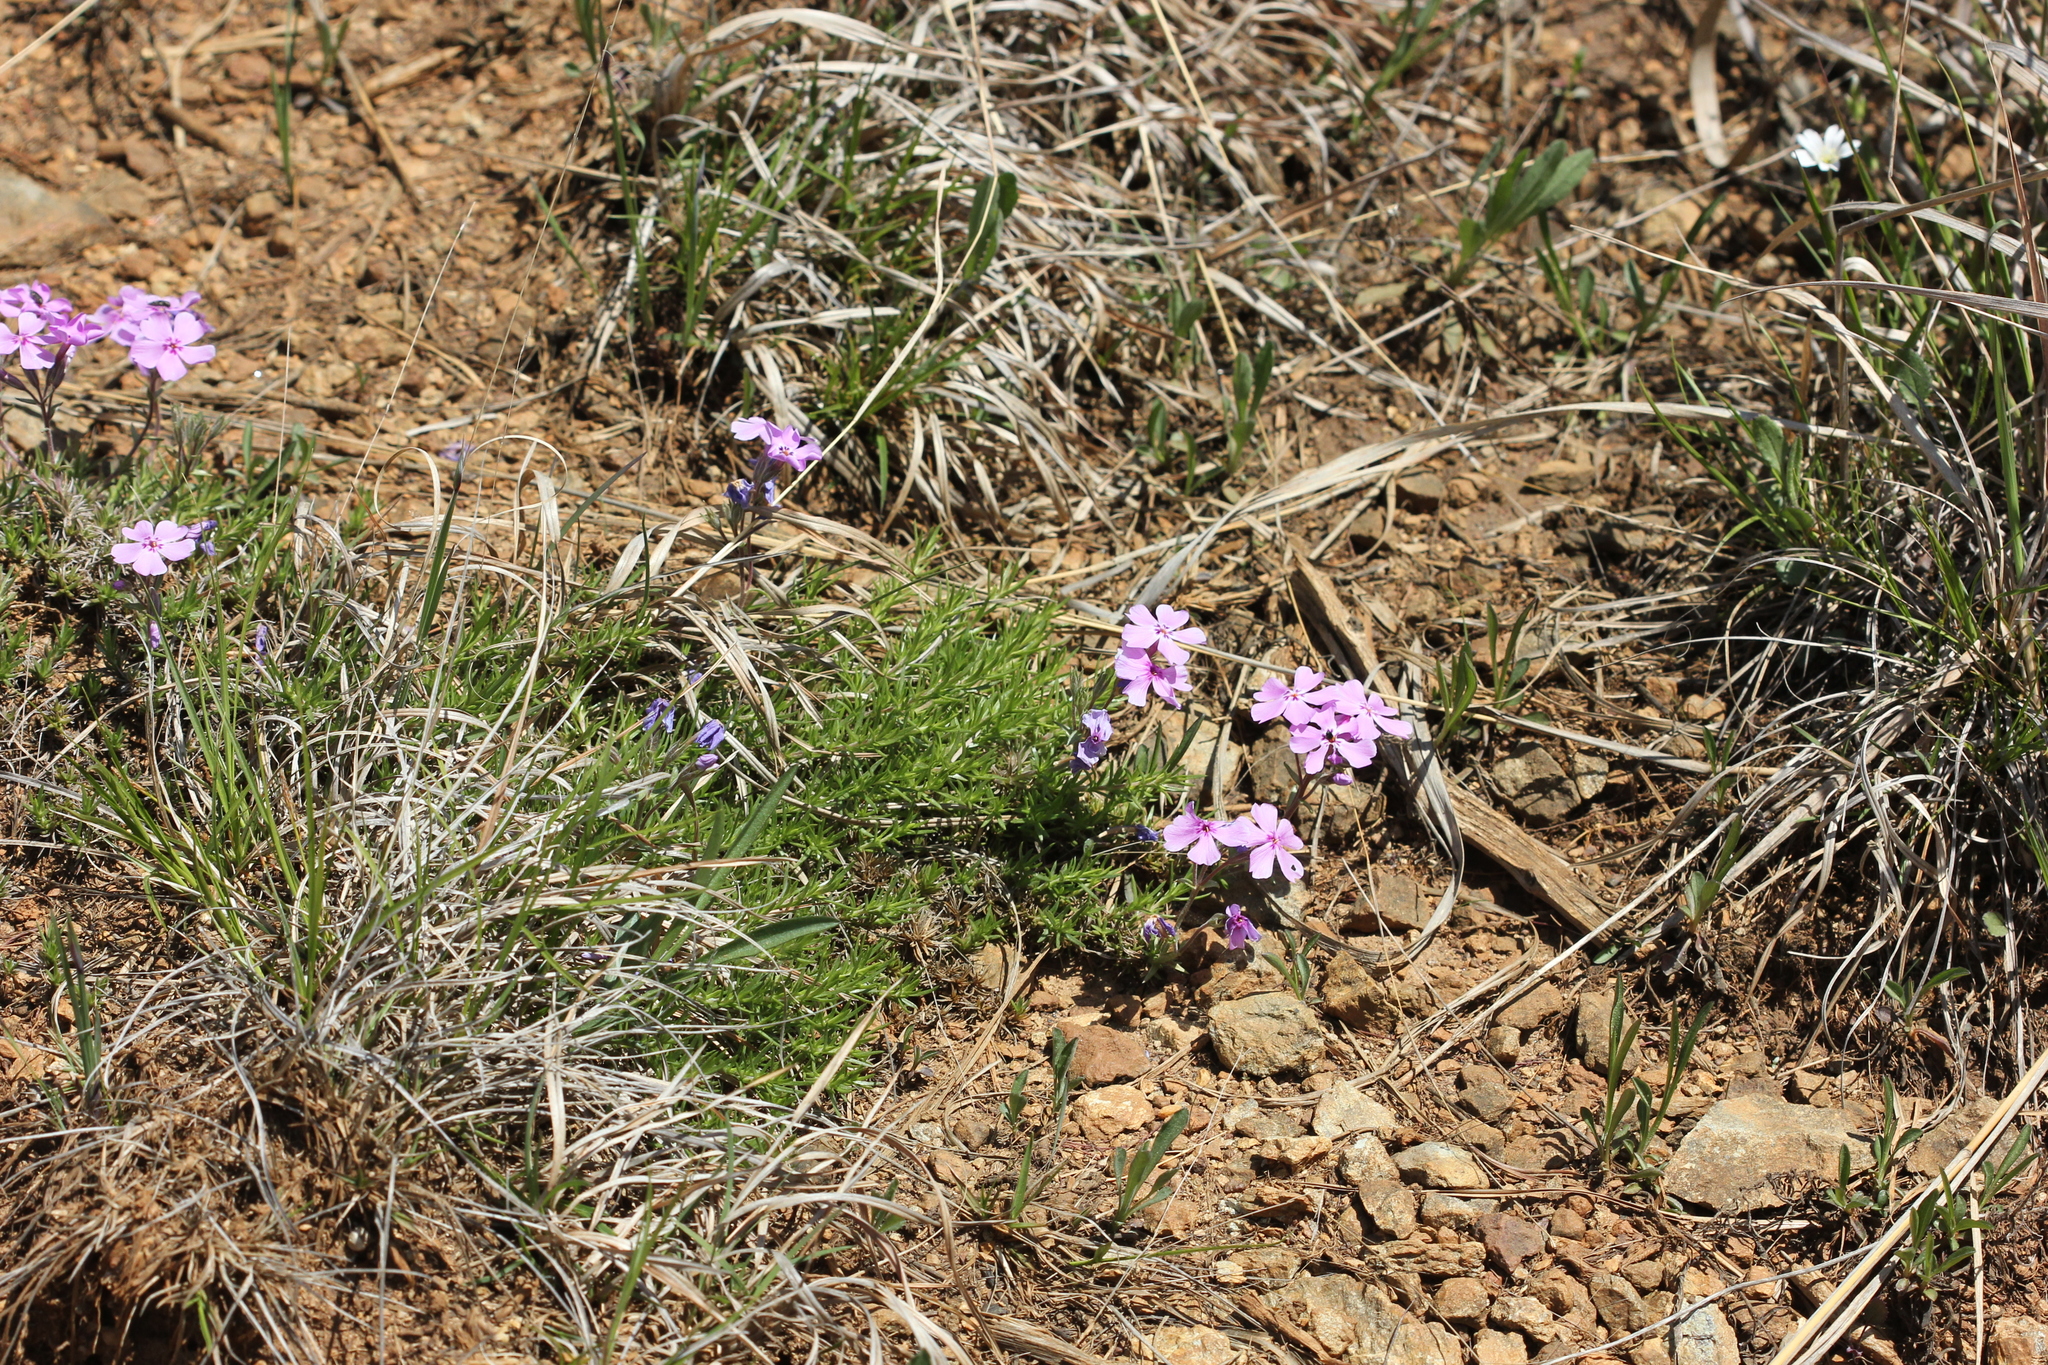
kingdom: Plantae
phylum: Tracheophyta
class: Magnoliopsida
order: Ericales
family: Polemoniaceae
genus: Phlox
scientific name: Phlox subulata
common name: Moss phlox
